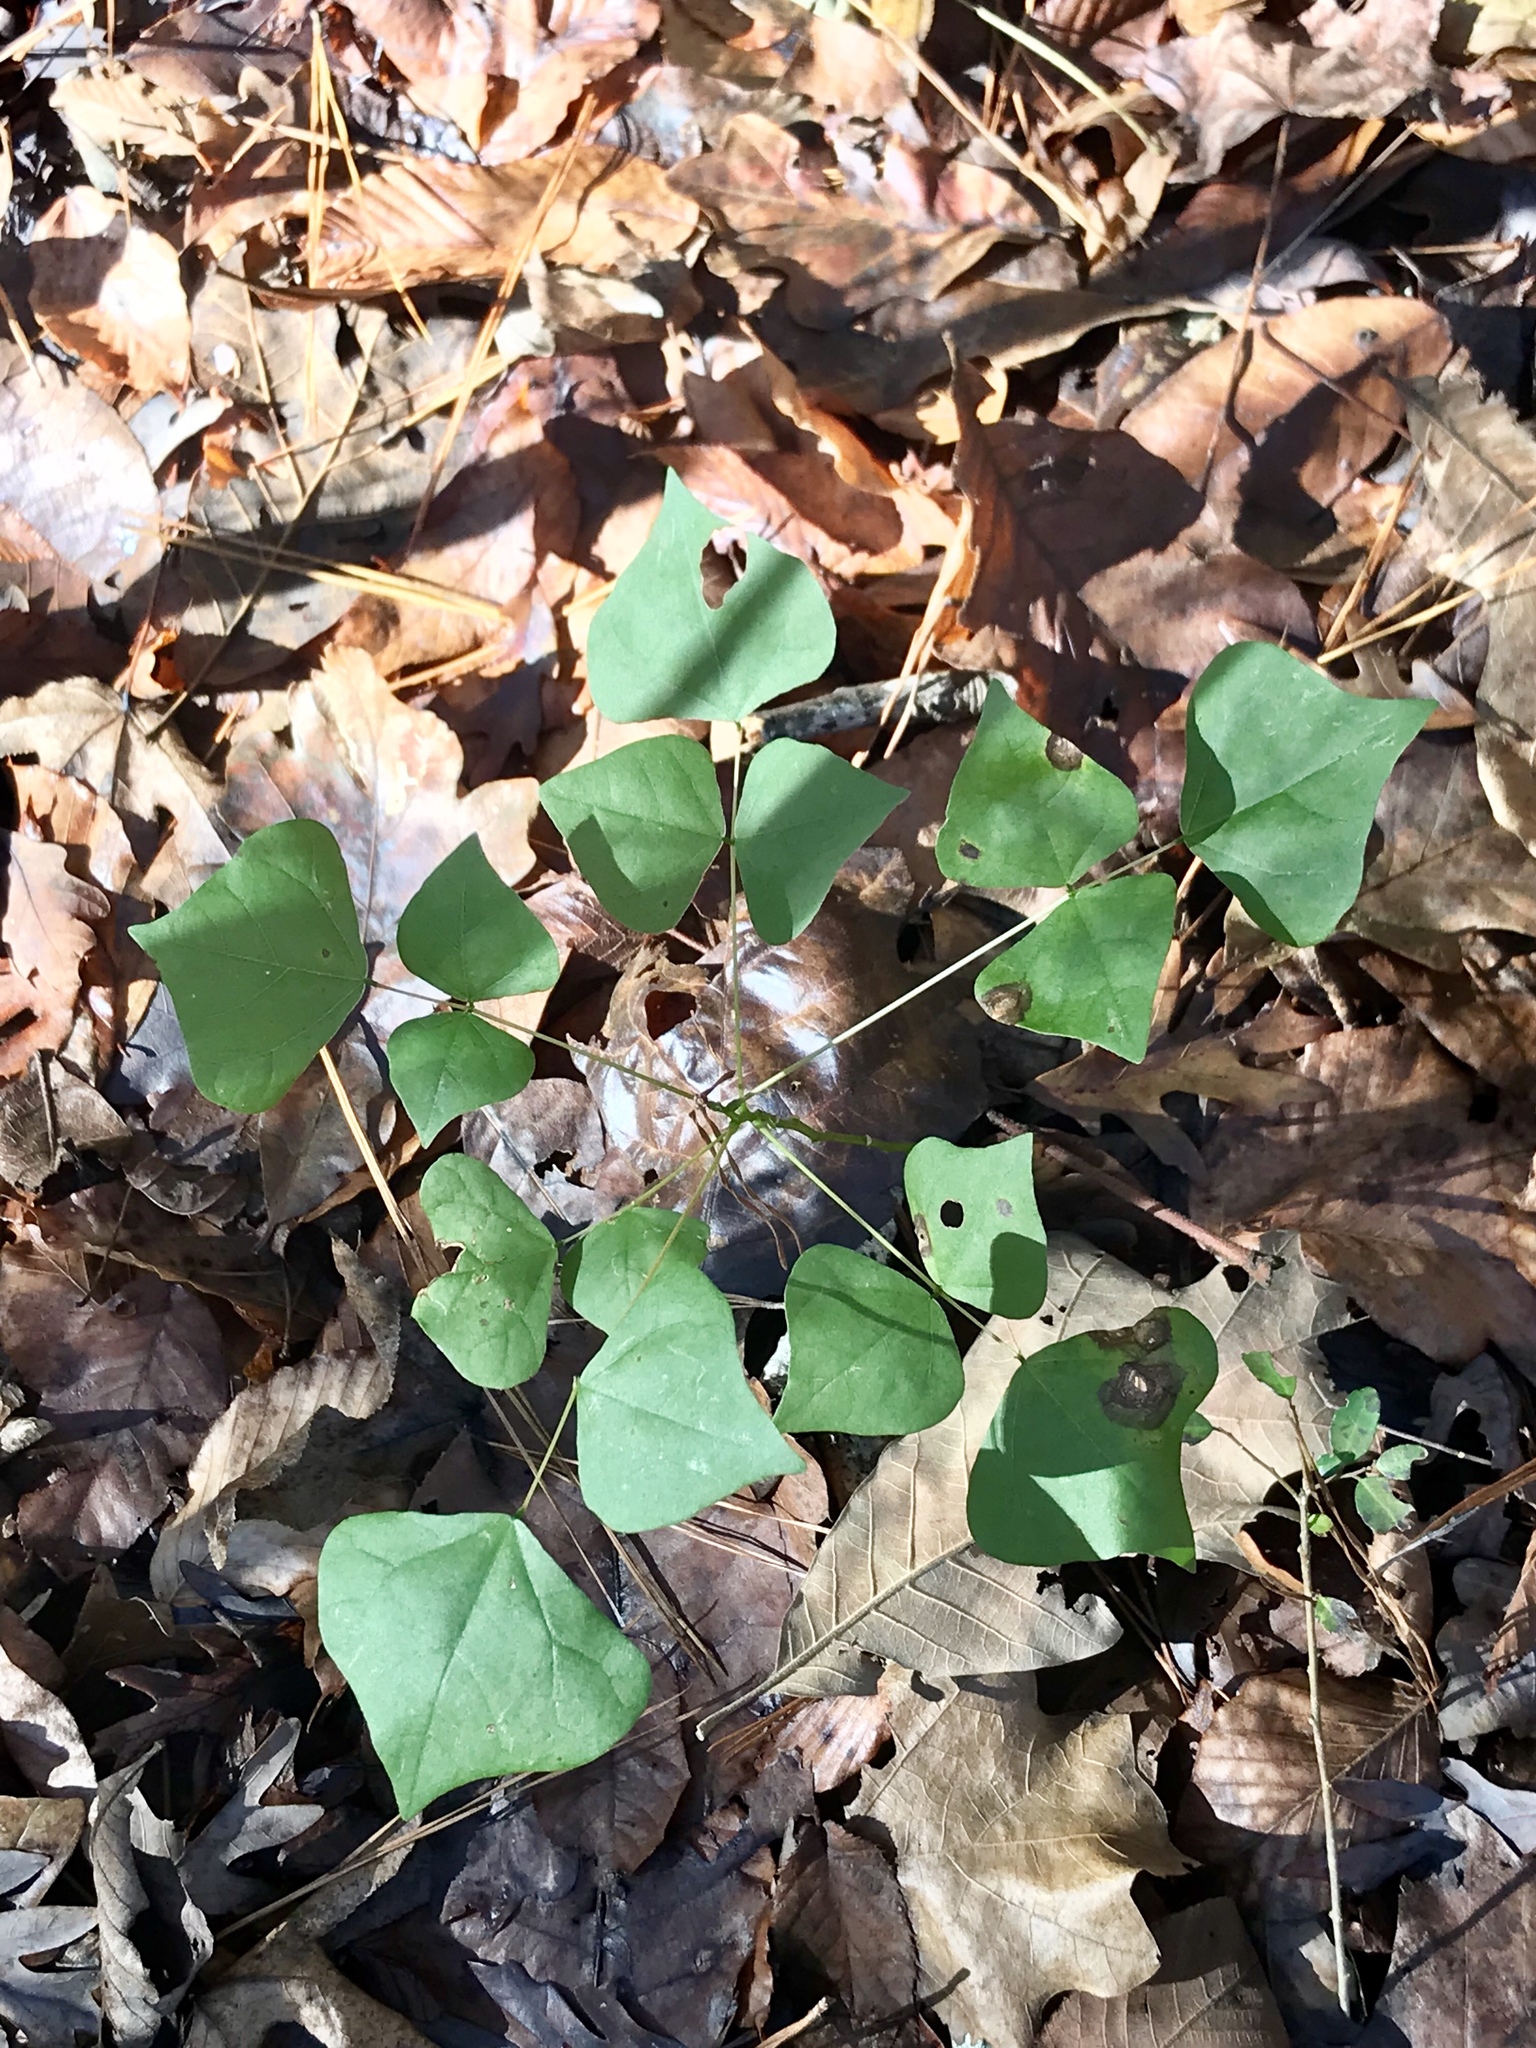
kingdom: Plantae
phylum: Tracheophyta
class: Magnoliopsida
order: Fabales
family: Fabaceae
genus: Erythrina
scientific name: Erythrina herbacea
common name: Coral-bean
